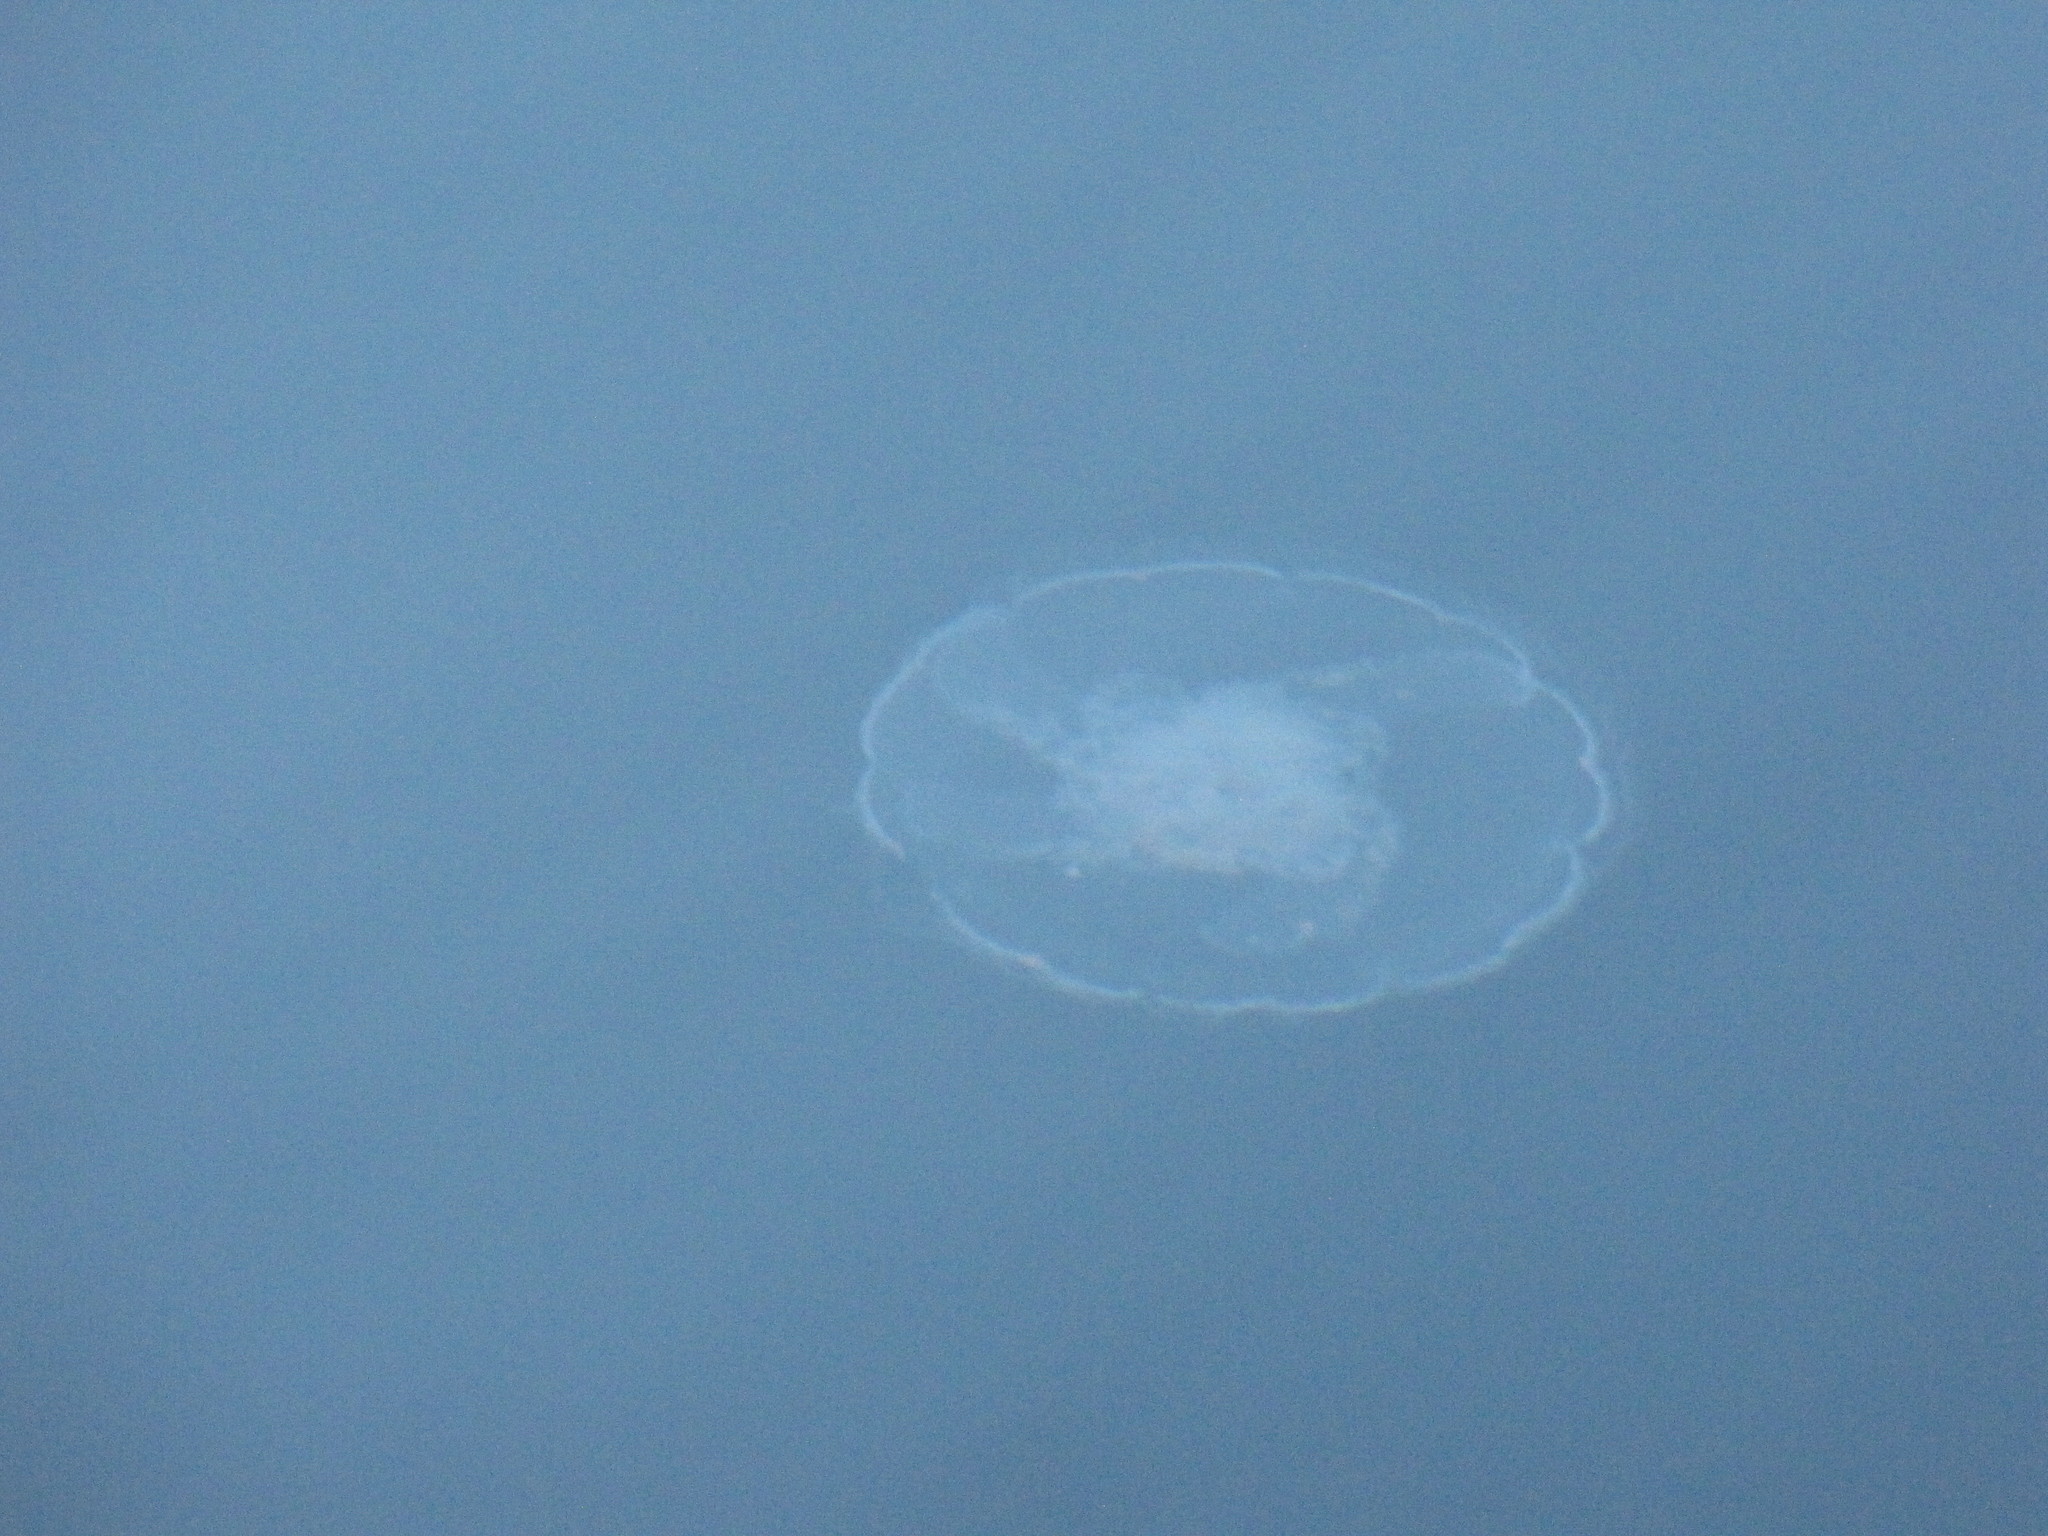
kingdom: Animalia
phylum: Cnidaria
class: Scyphozoa
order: Semaeostomeae
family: Ulmaridae
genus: Aurelia
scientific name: Aurelia labiata
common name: Pacific moon jelly
